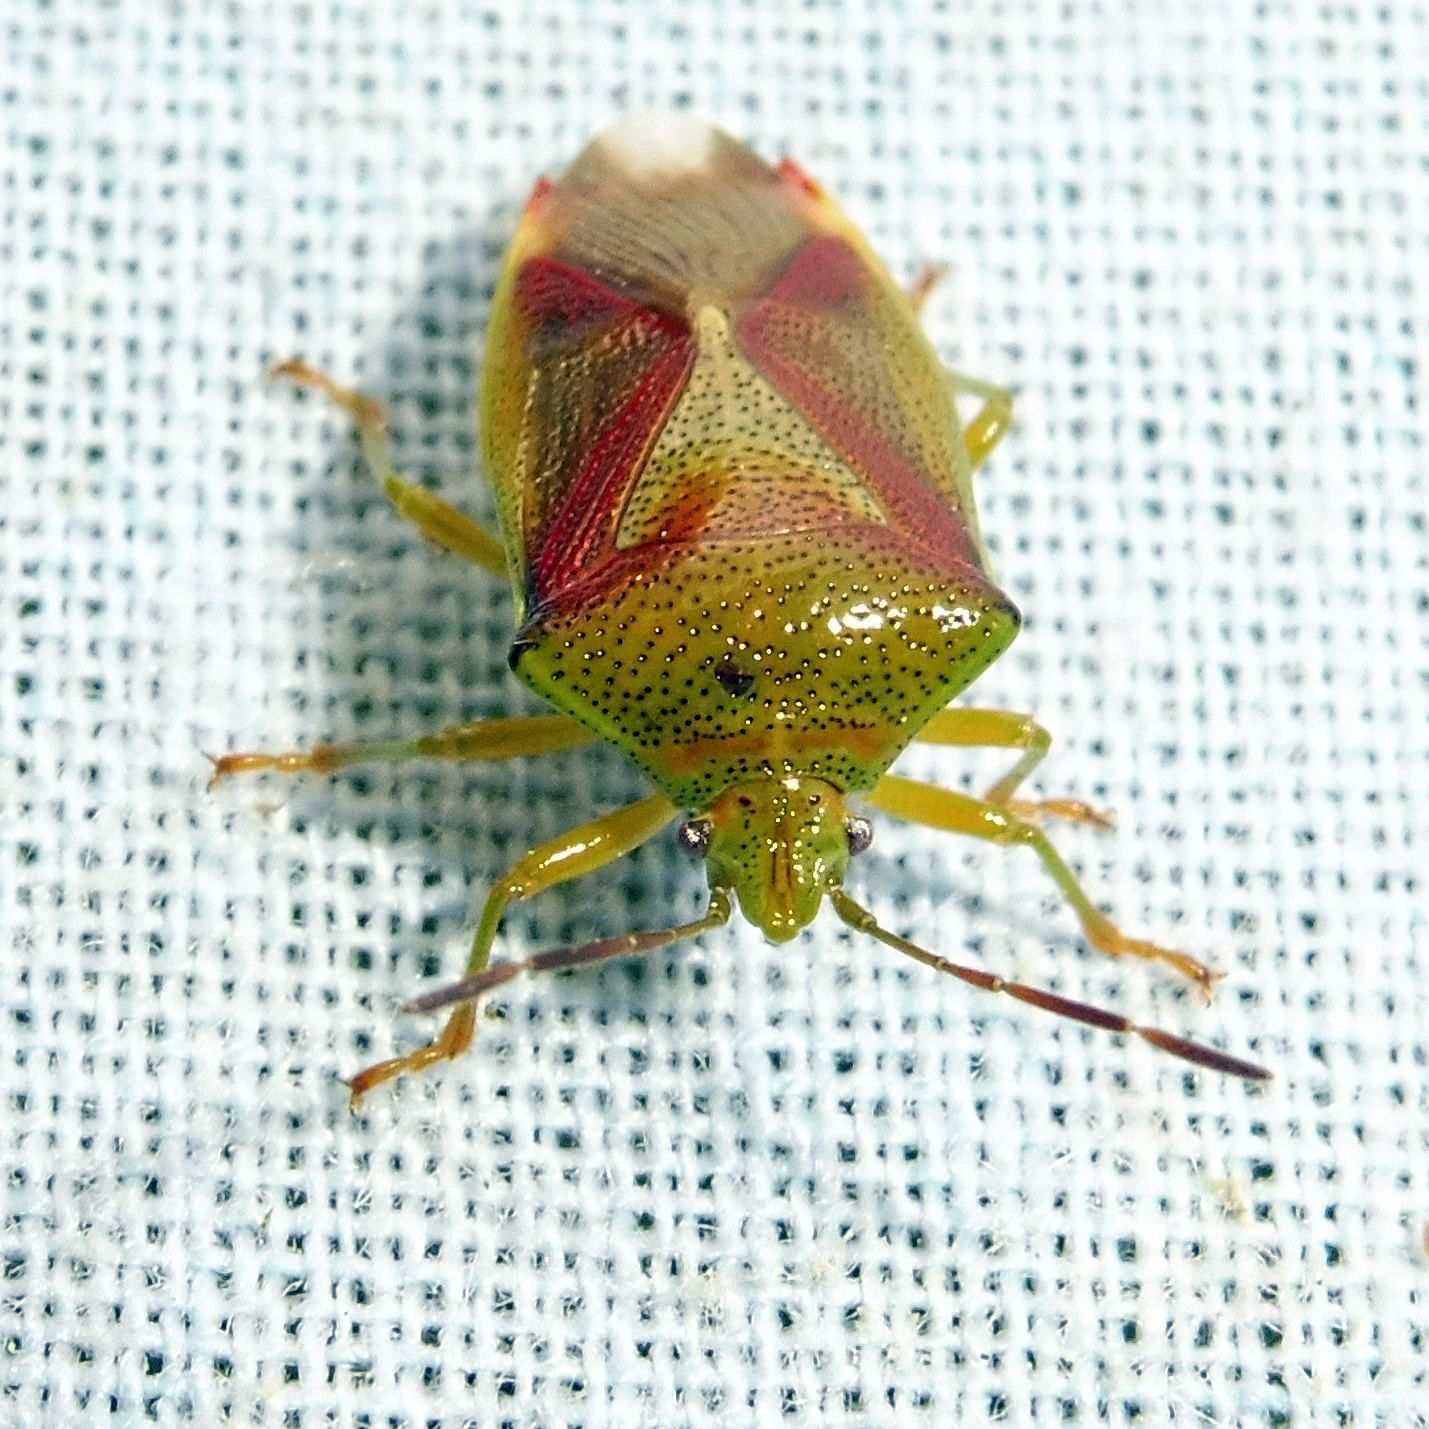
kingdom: Animalia
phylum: Arthropoda
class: Insecta
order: Hemiptera
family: Acanthosomatidae
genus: Elasmostethus
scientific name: Elasmostethus interstinctus
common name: Birch shieldbug
